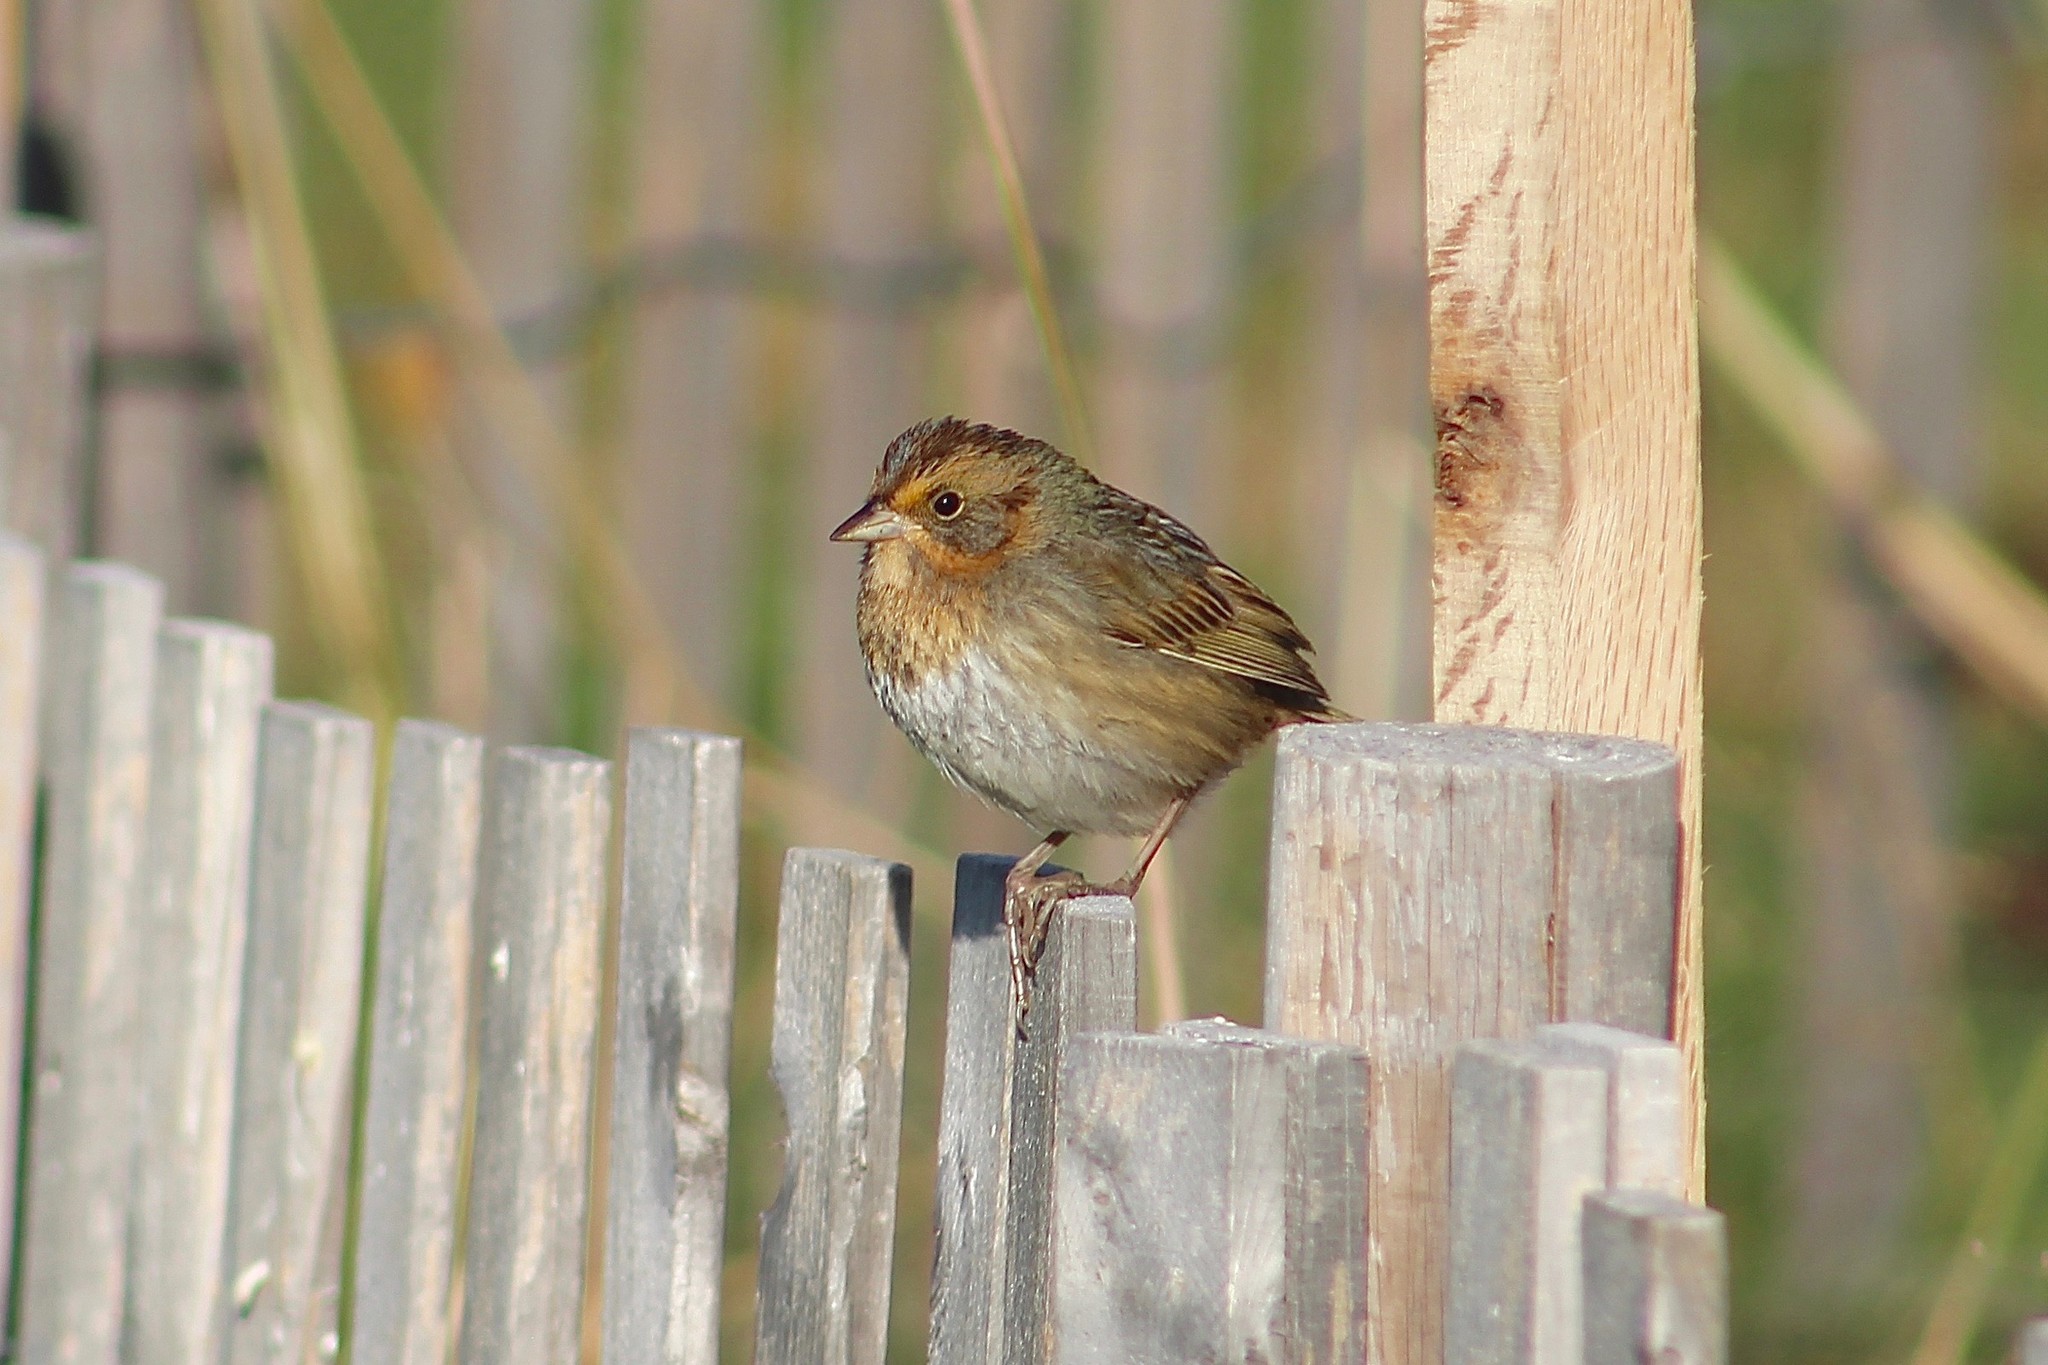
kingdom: Animalia
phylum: Chordata
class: Aves
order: Passeriformes
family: Passerellidae
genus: Ammospiza
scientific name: Ammospiza nelsoni
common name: Nelson's sparrow
